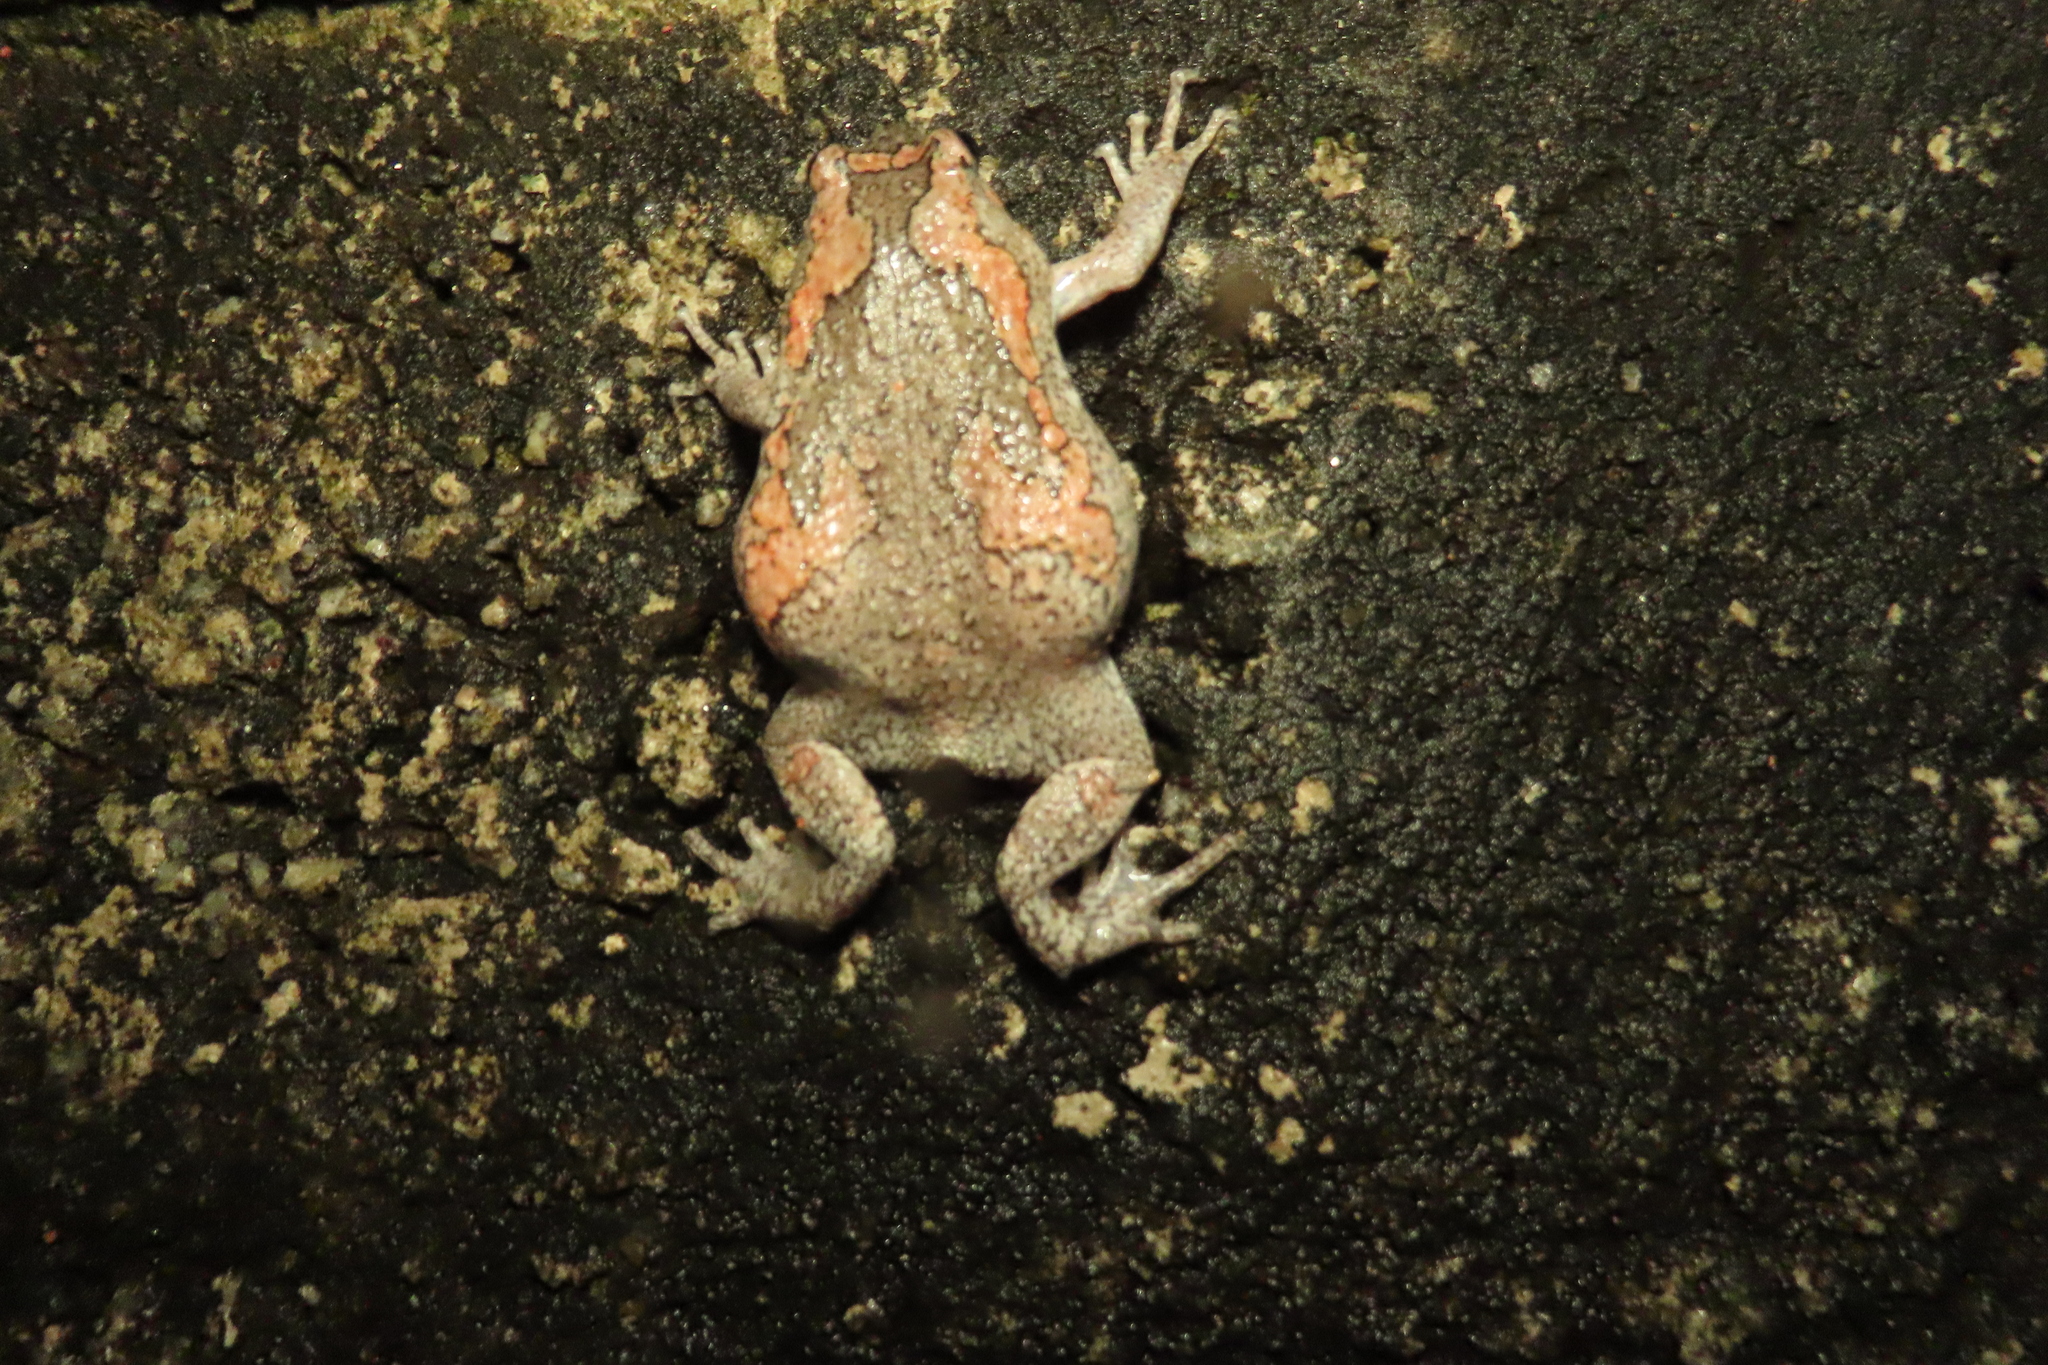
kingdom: Animalia
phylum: Chordata
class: Amphibia
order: Anura
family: Microhylidae
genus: Uperodon
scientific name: Uperodon taprobanicus
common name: Ceylon kaloula
